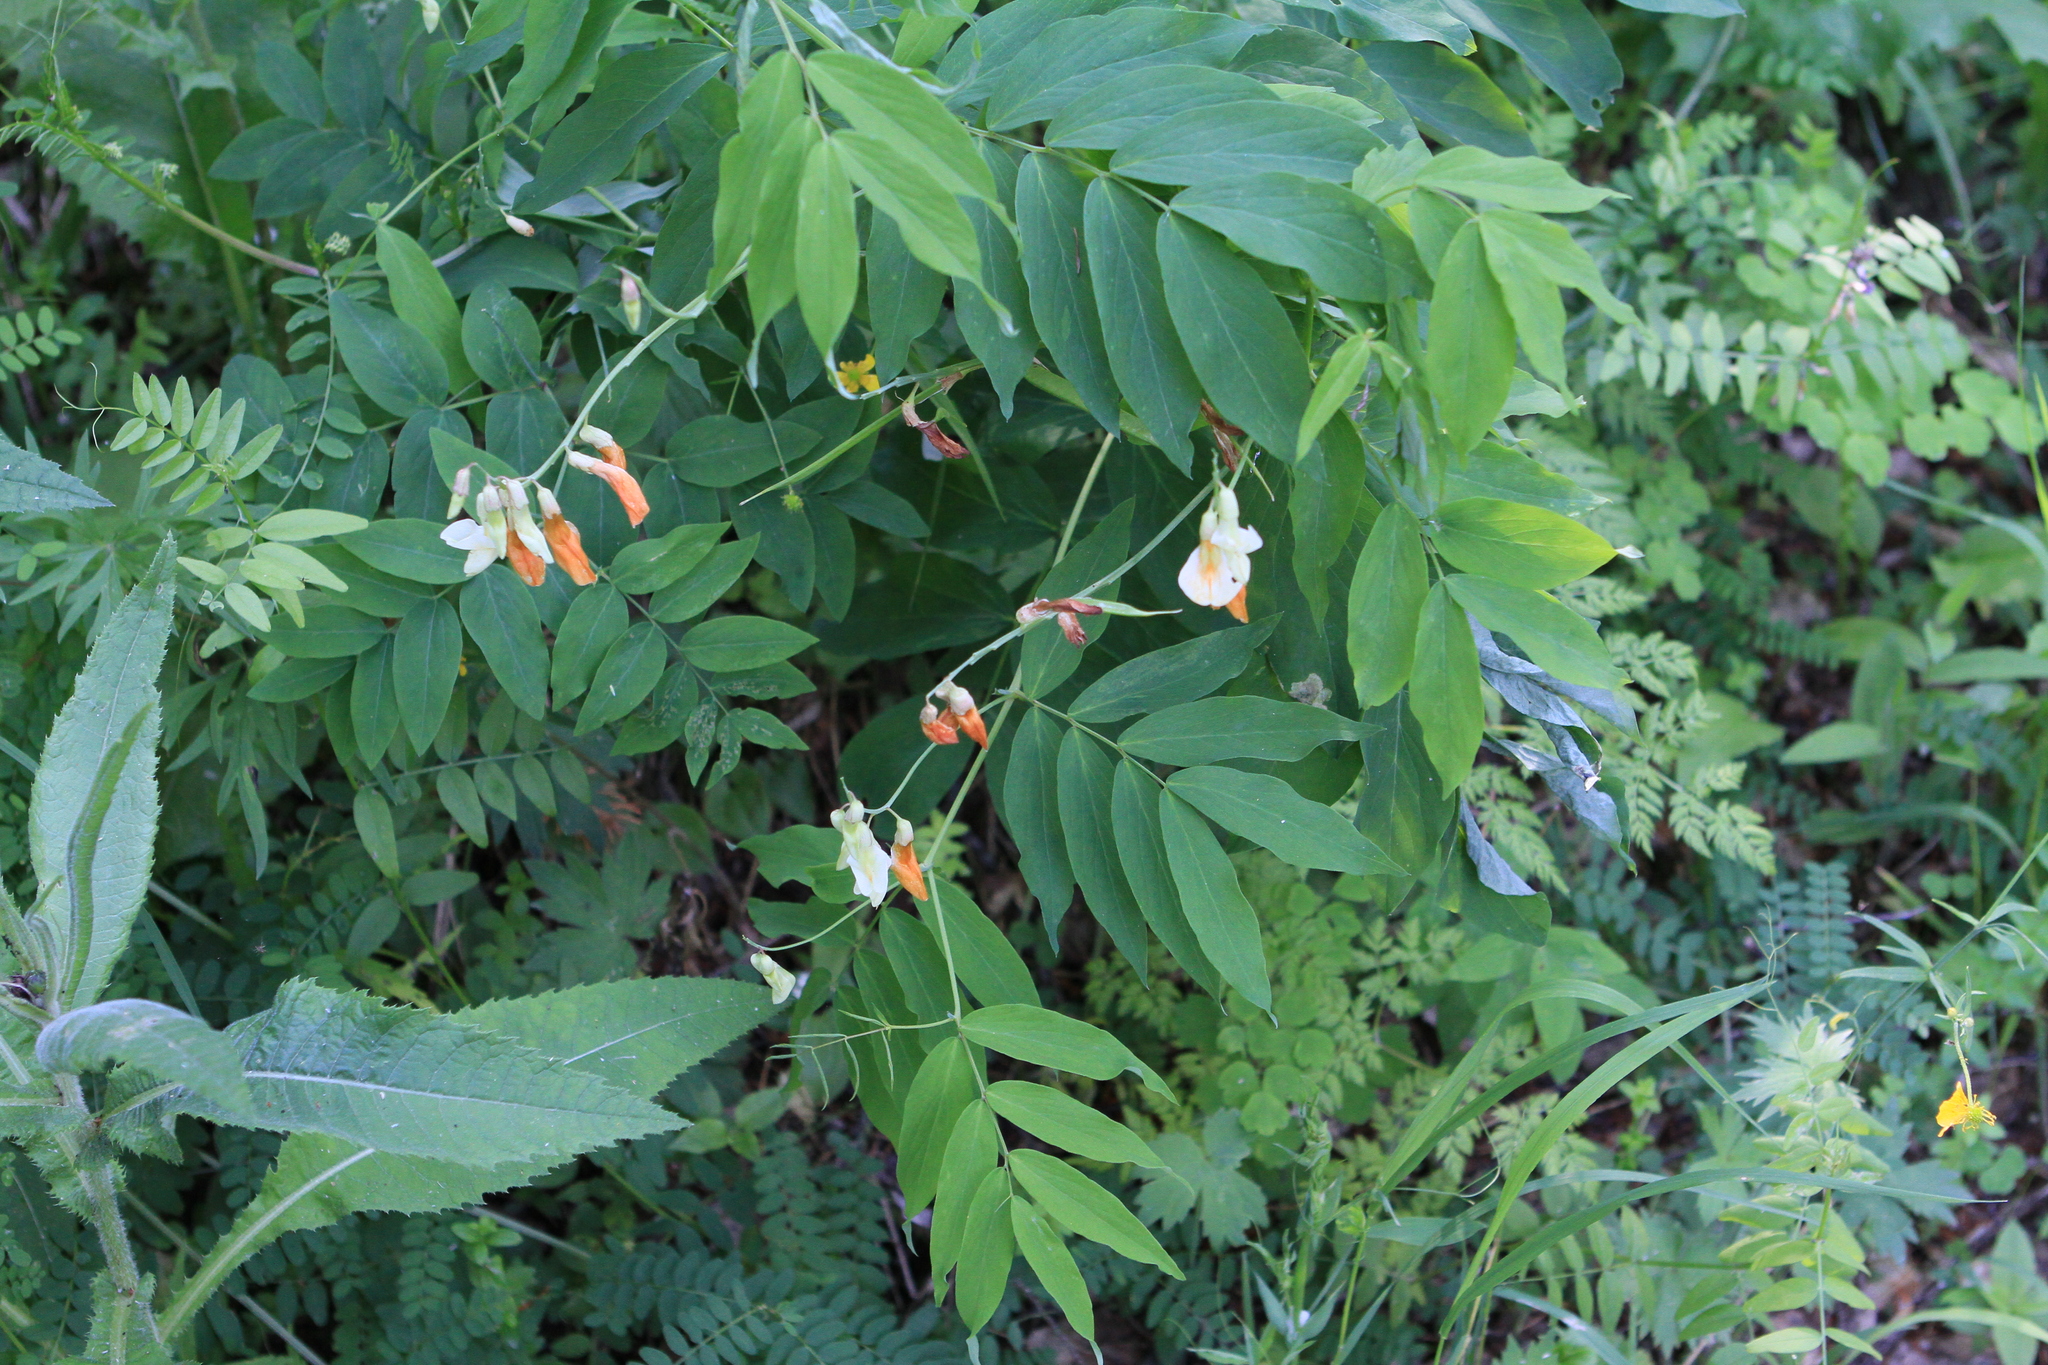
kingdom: Plantae
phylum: Tracheophyta
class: Magnoliopsida
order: Fabales
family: Fabaceae
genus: Lathyrus
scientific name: Lathyrus gmelinii
